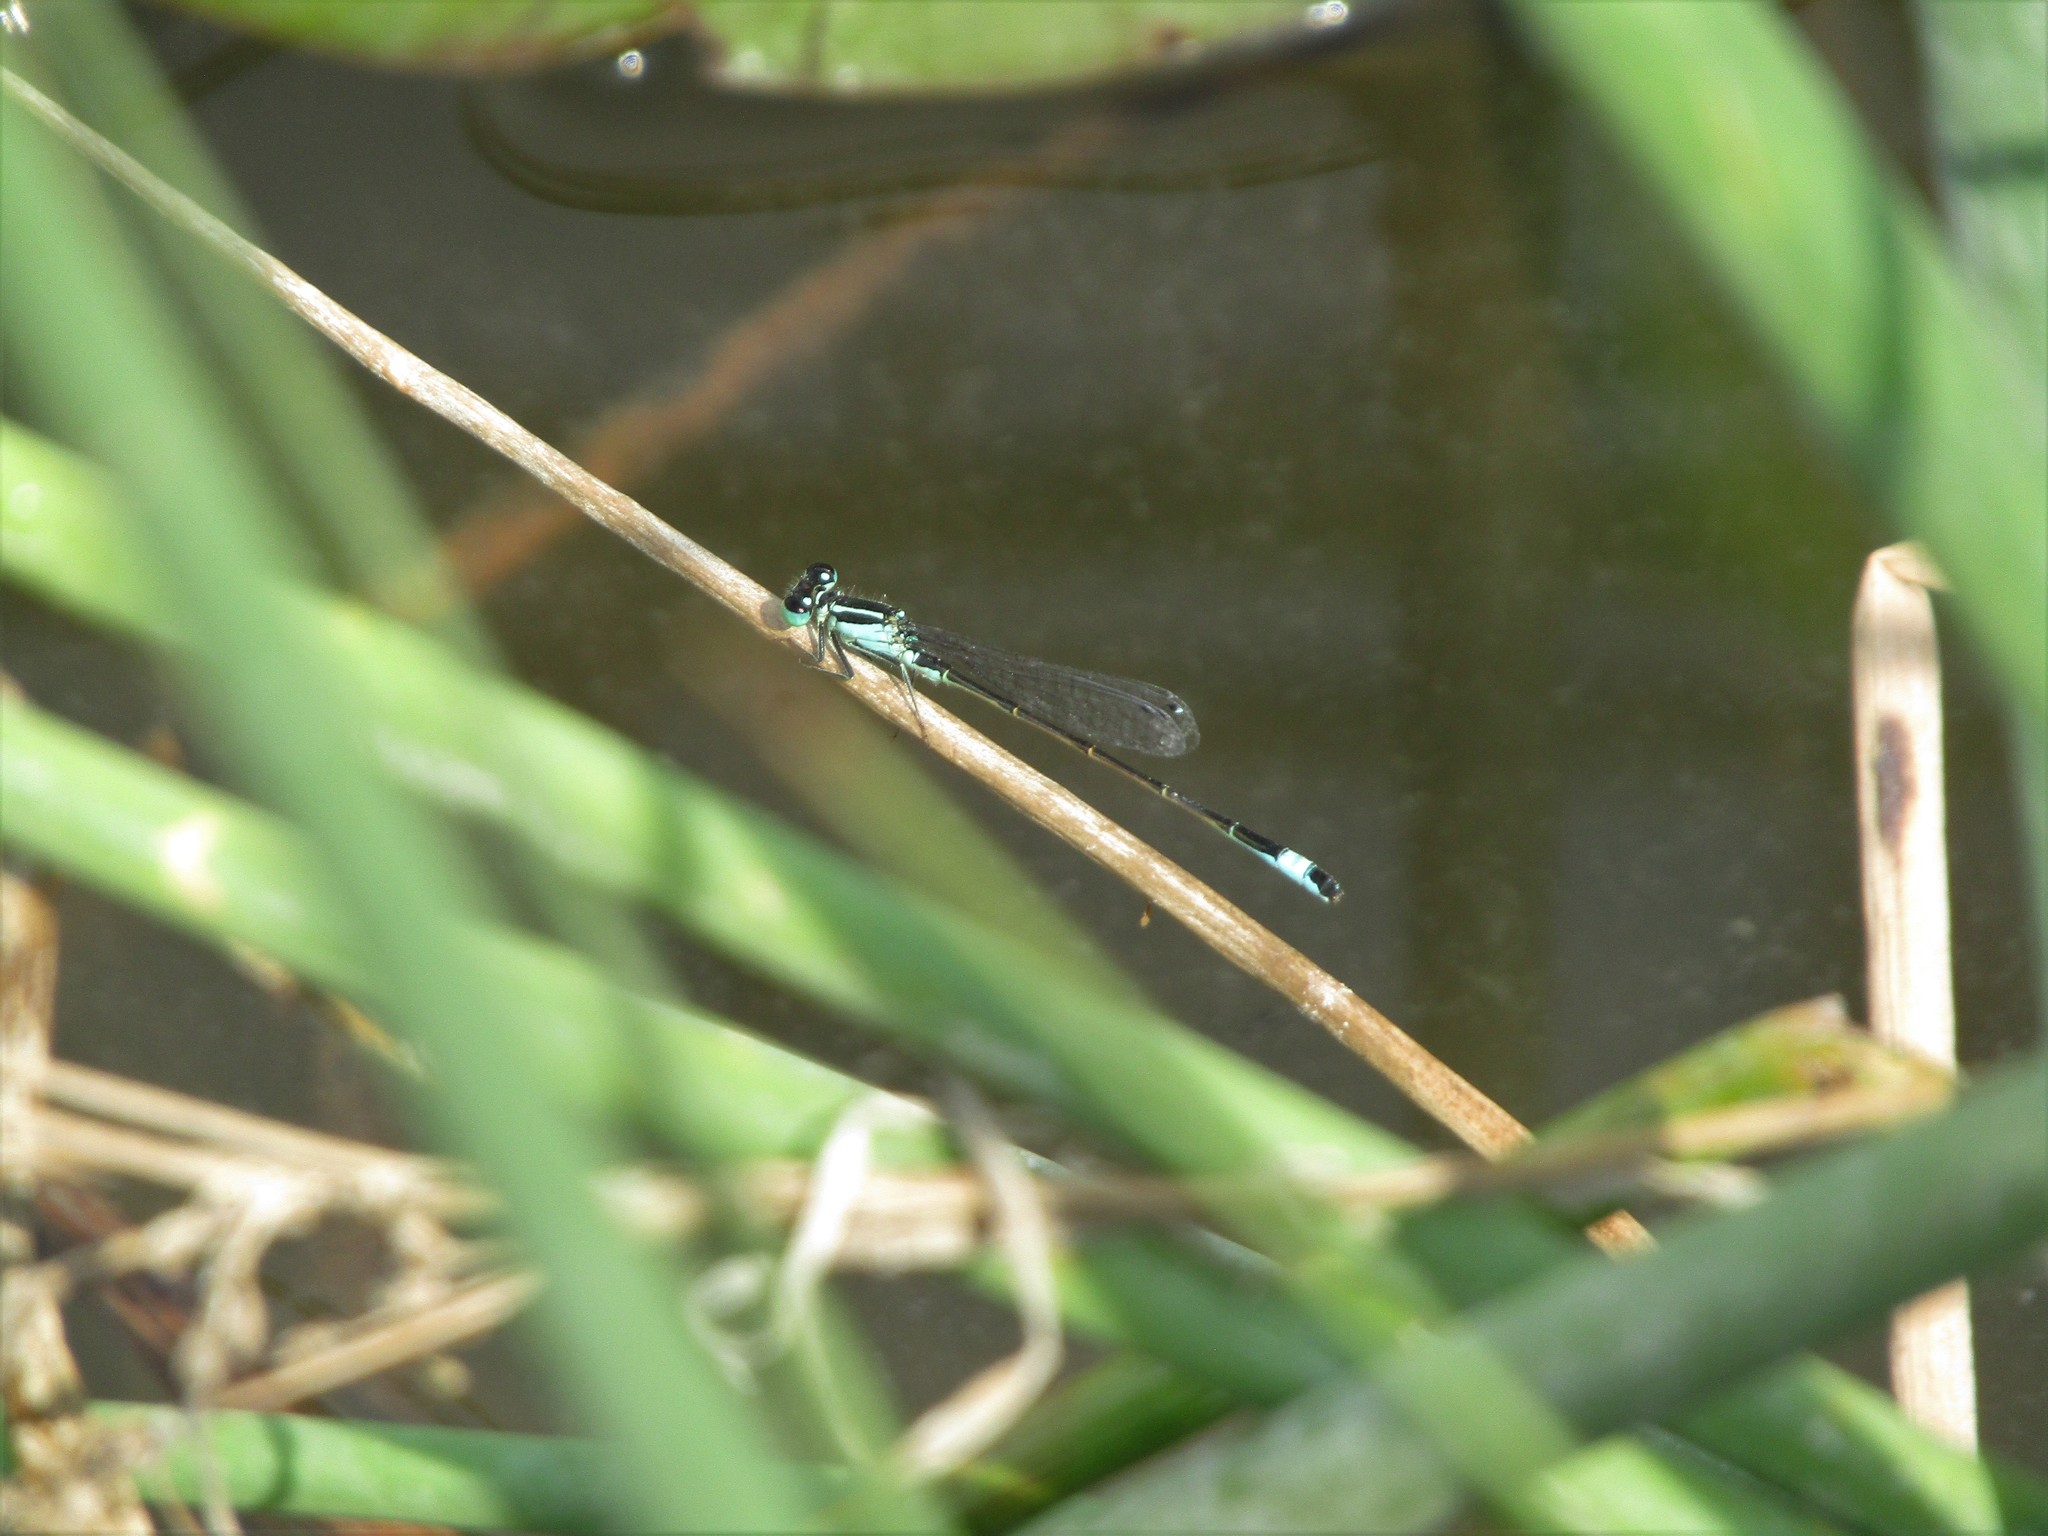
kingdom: Animalia
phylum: Arthropoda
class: Insecta
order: Odonata
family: Coenagrionidae
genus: Ischnura
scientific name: Ischnura elegans
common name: Blue-tailed damselfly
